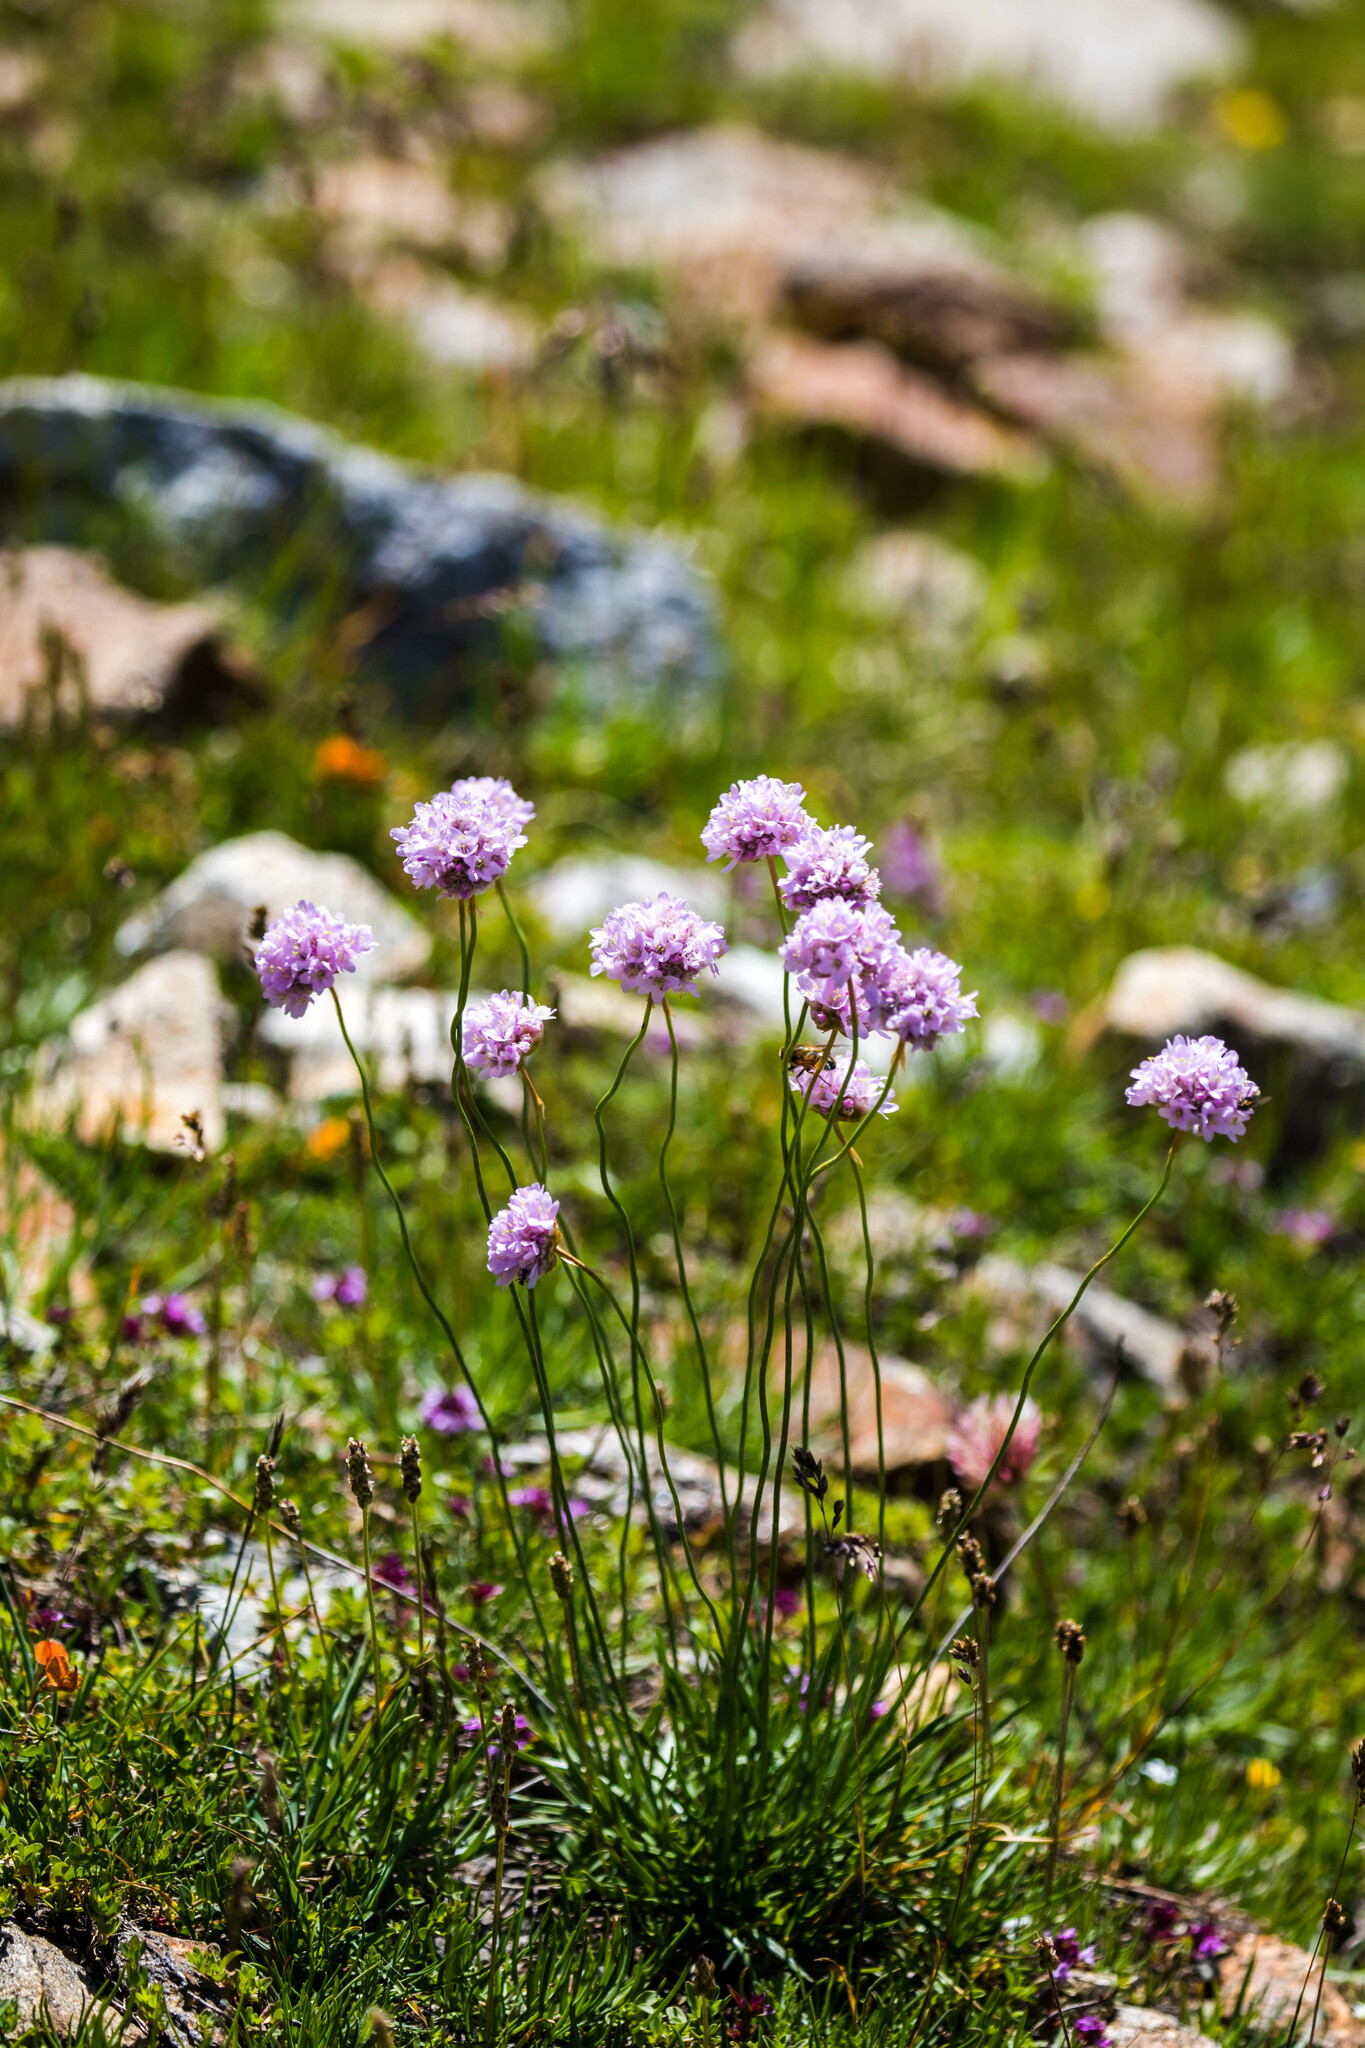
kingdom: Plantae
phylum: Tracheophyta
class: Magnoliopsida
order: Caryophyllales
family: Plumbaginaceae
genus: Armeria
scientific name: Armeria alpina
